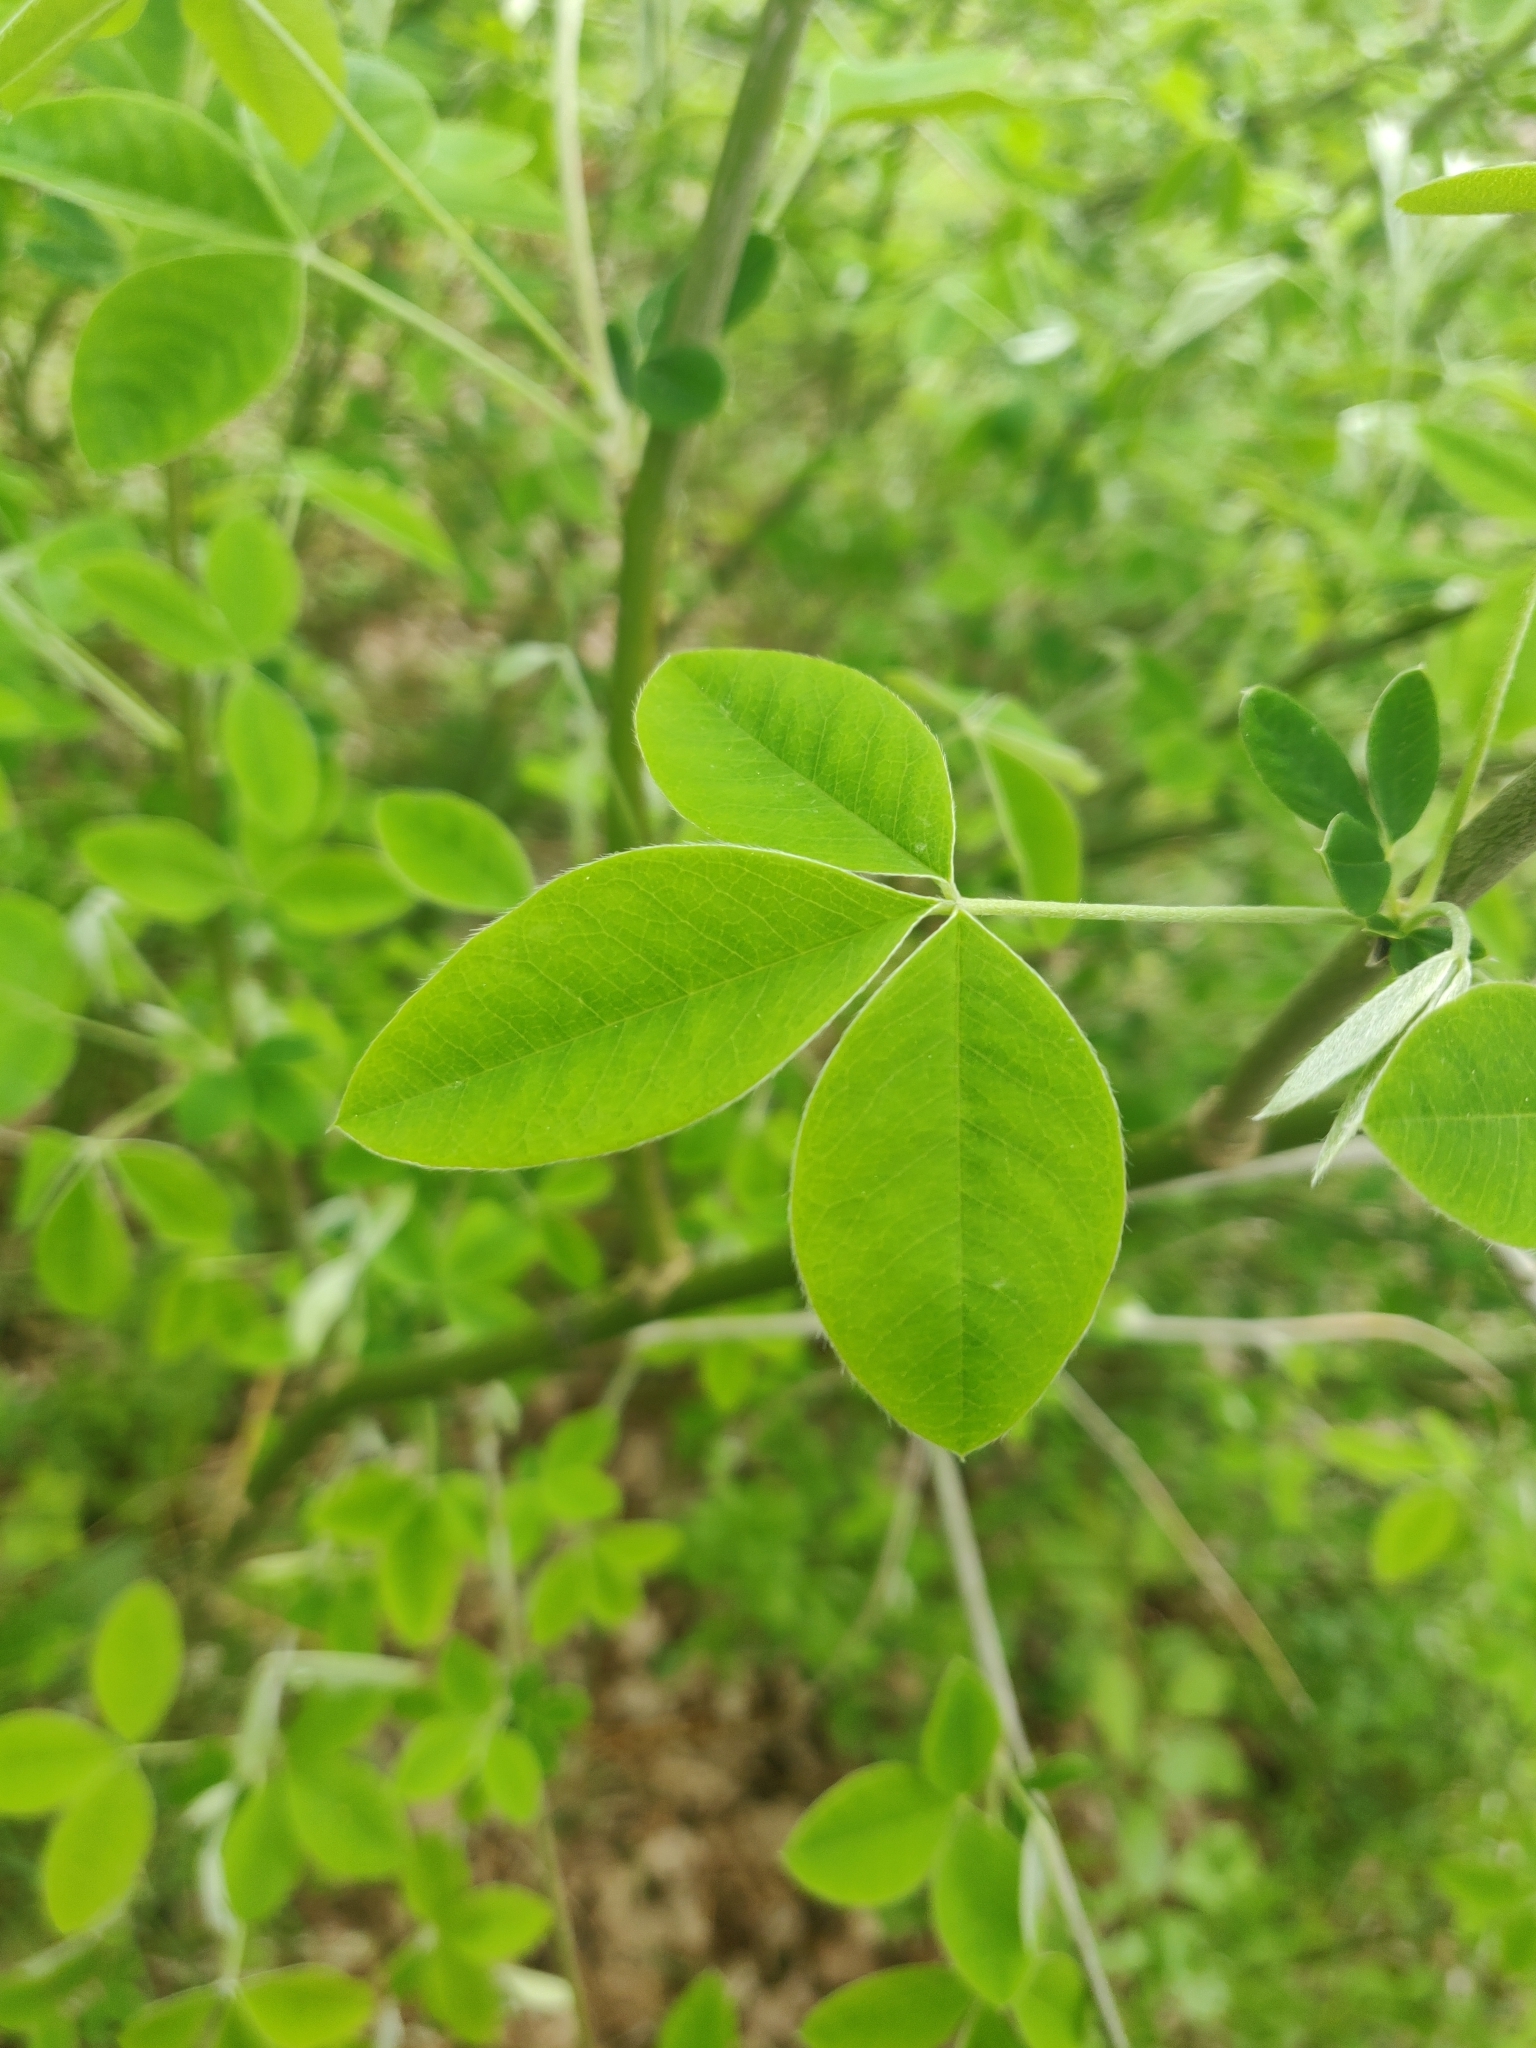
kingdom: Plantae
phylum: Tracheophyta
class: Magnoliopsida
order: Fabales
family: Fabaceae
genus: Laburnum
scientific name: Laburnum anagyroides
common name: Laburnum
